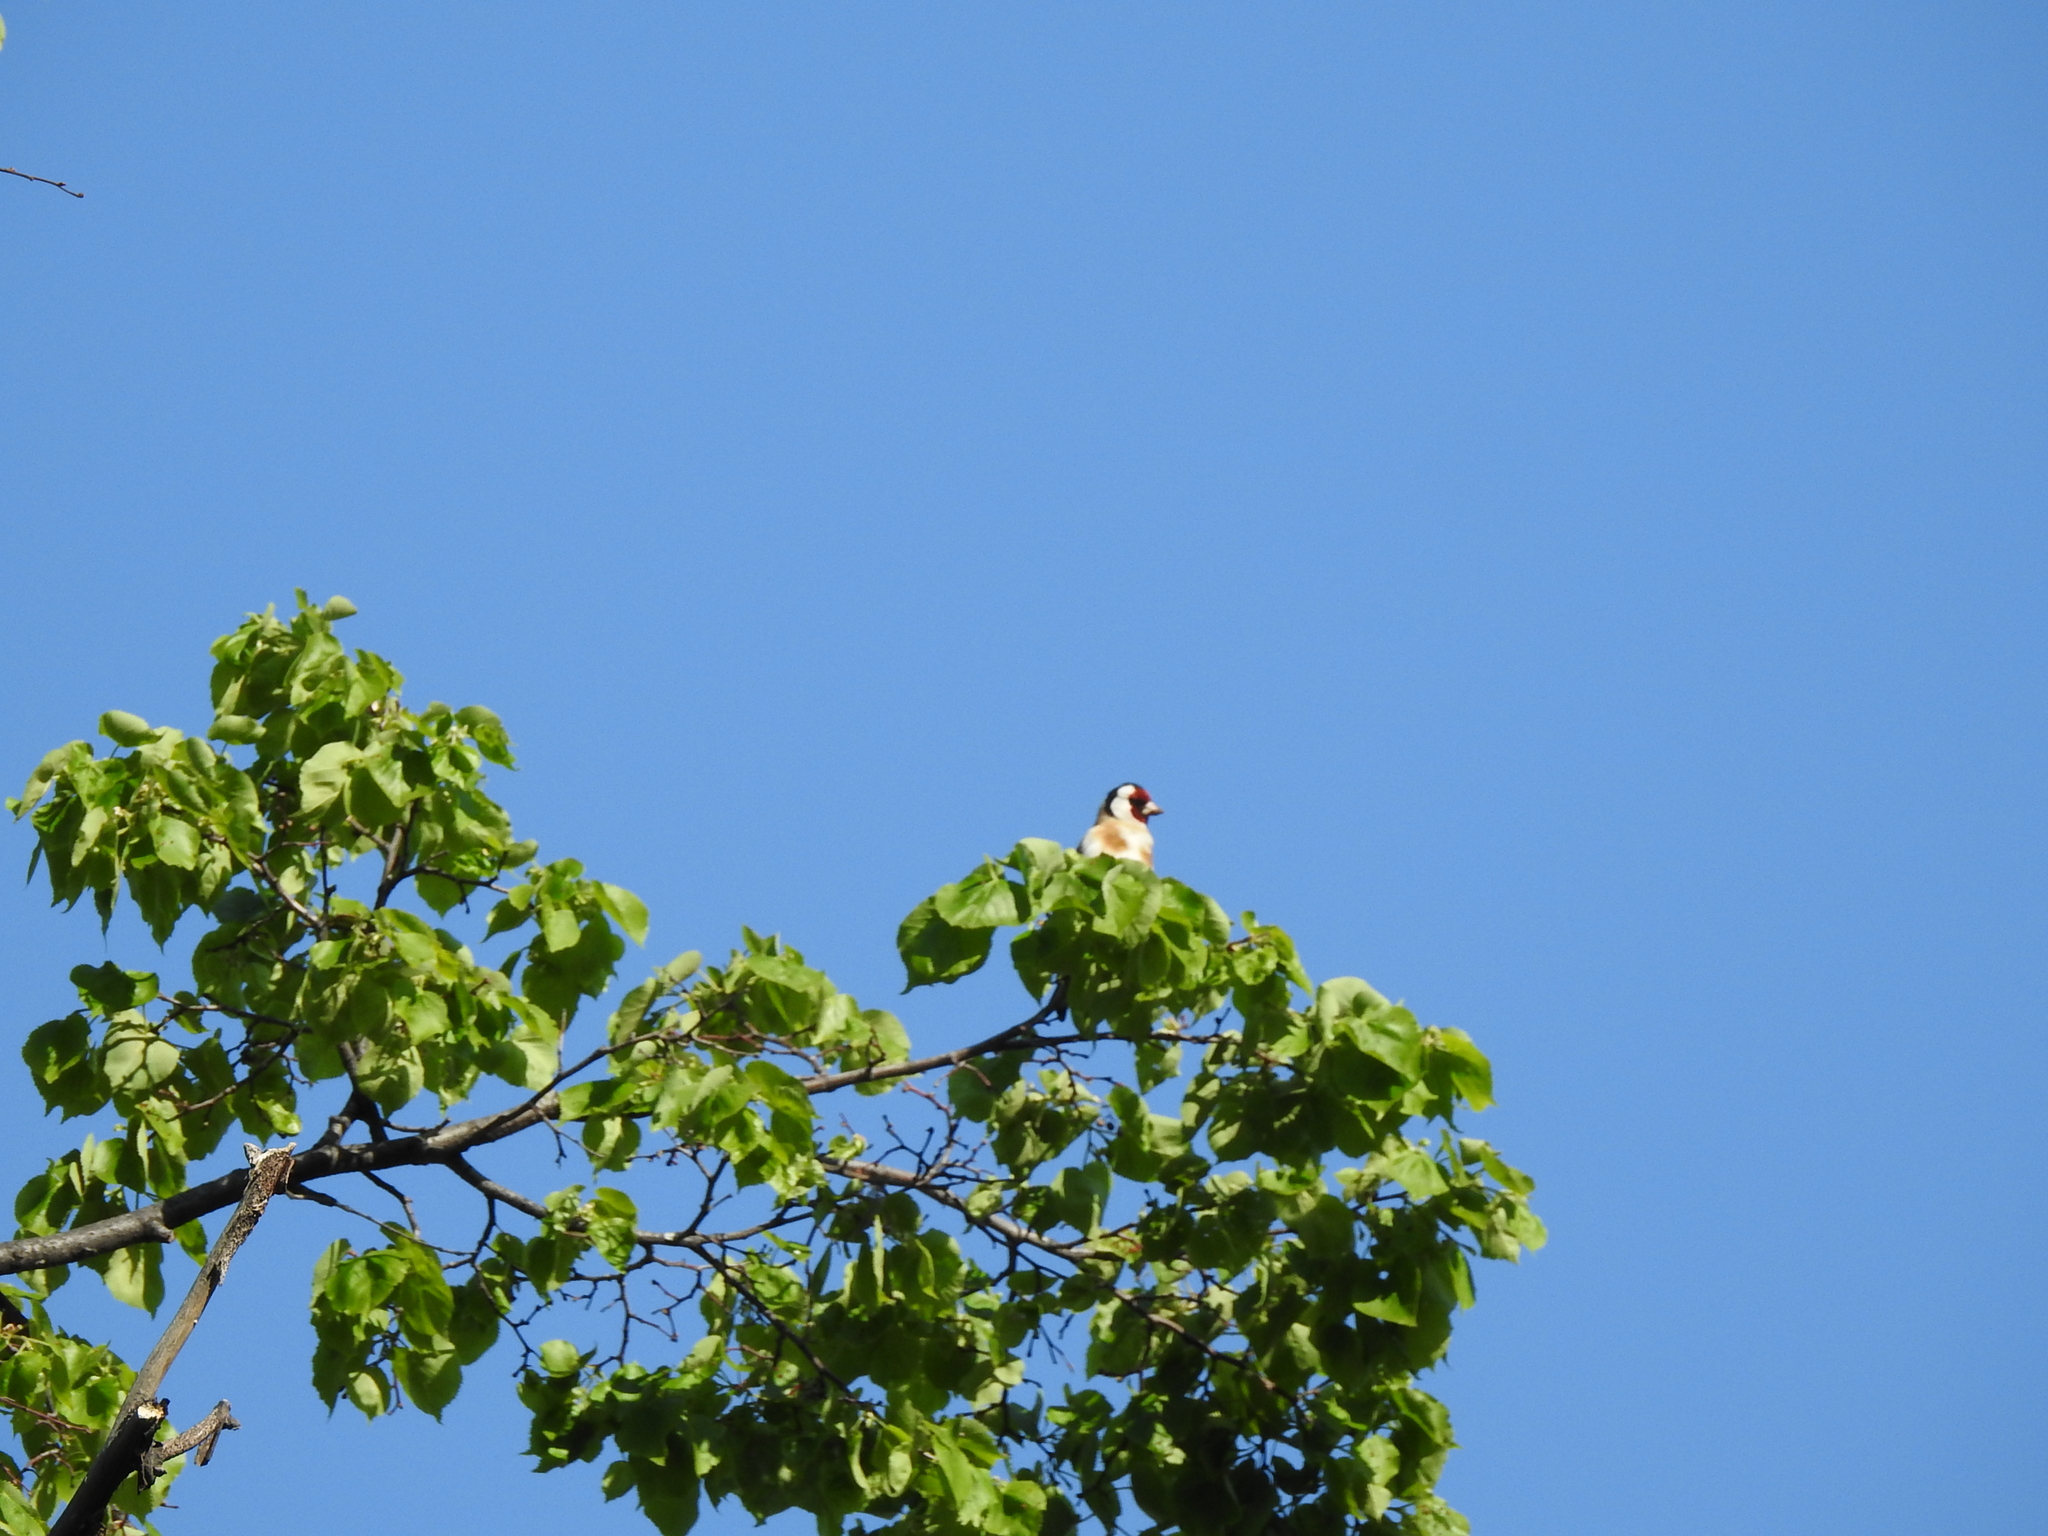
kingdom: Animalia
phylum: Chordata
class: Aves
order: Passeriformes
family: Fringillidae
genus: Carduelis
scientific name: Carduelis carduelis
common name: European goldfinch
